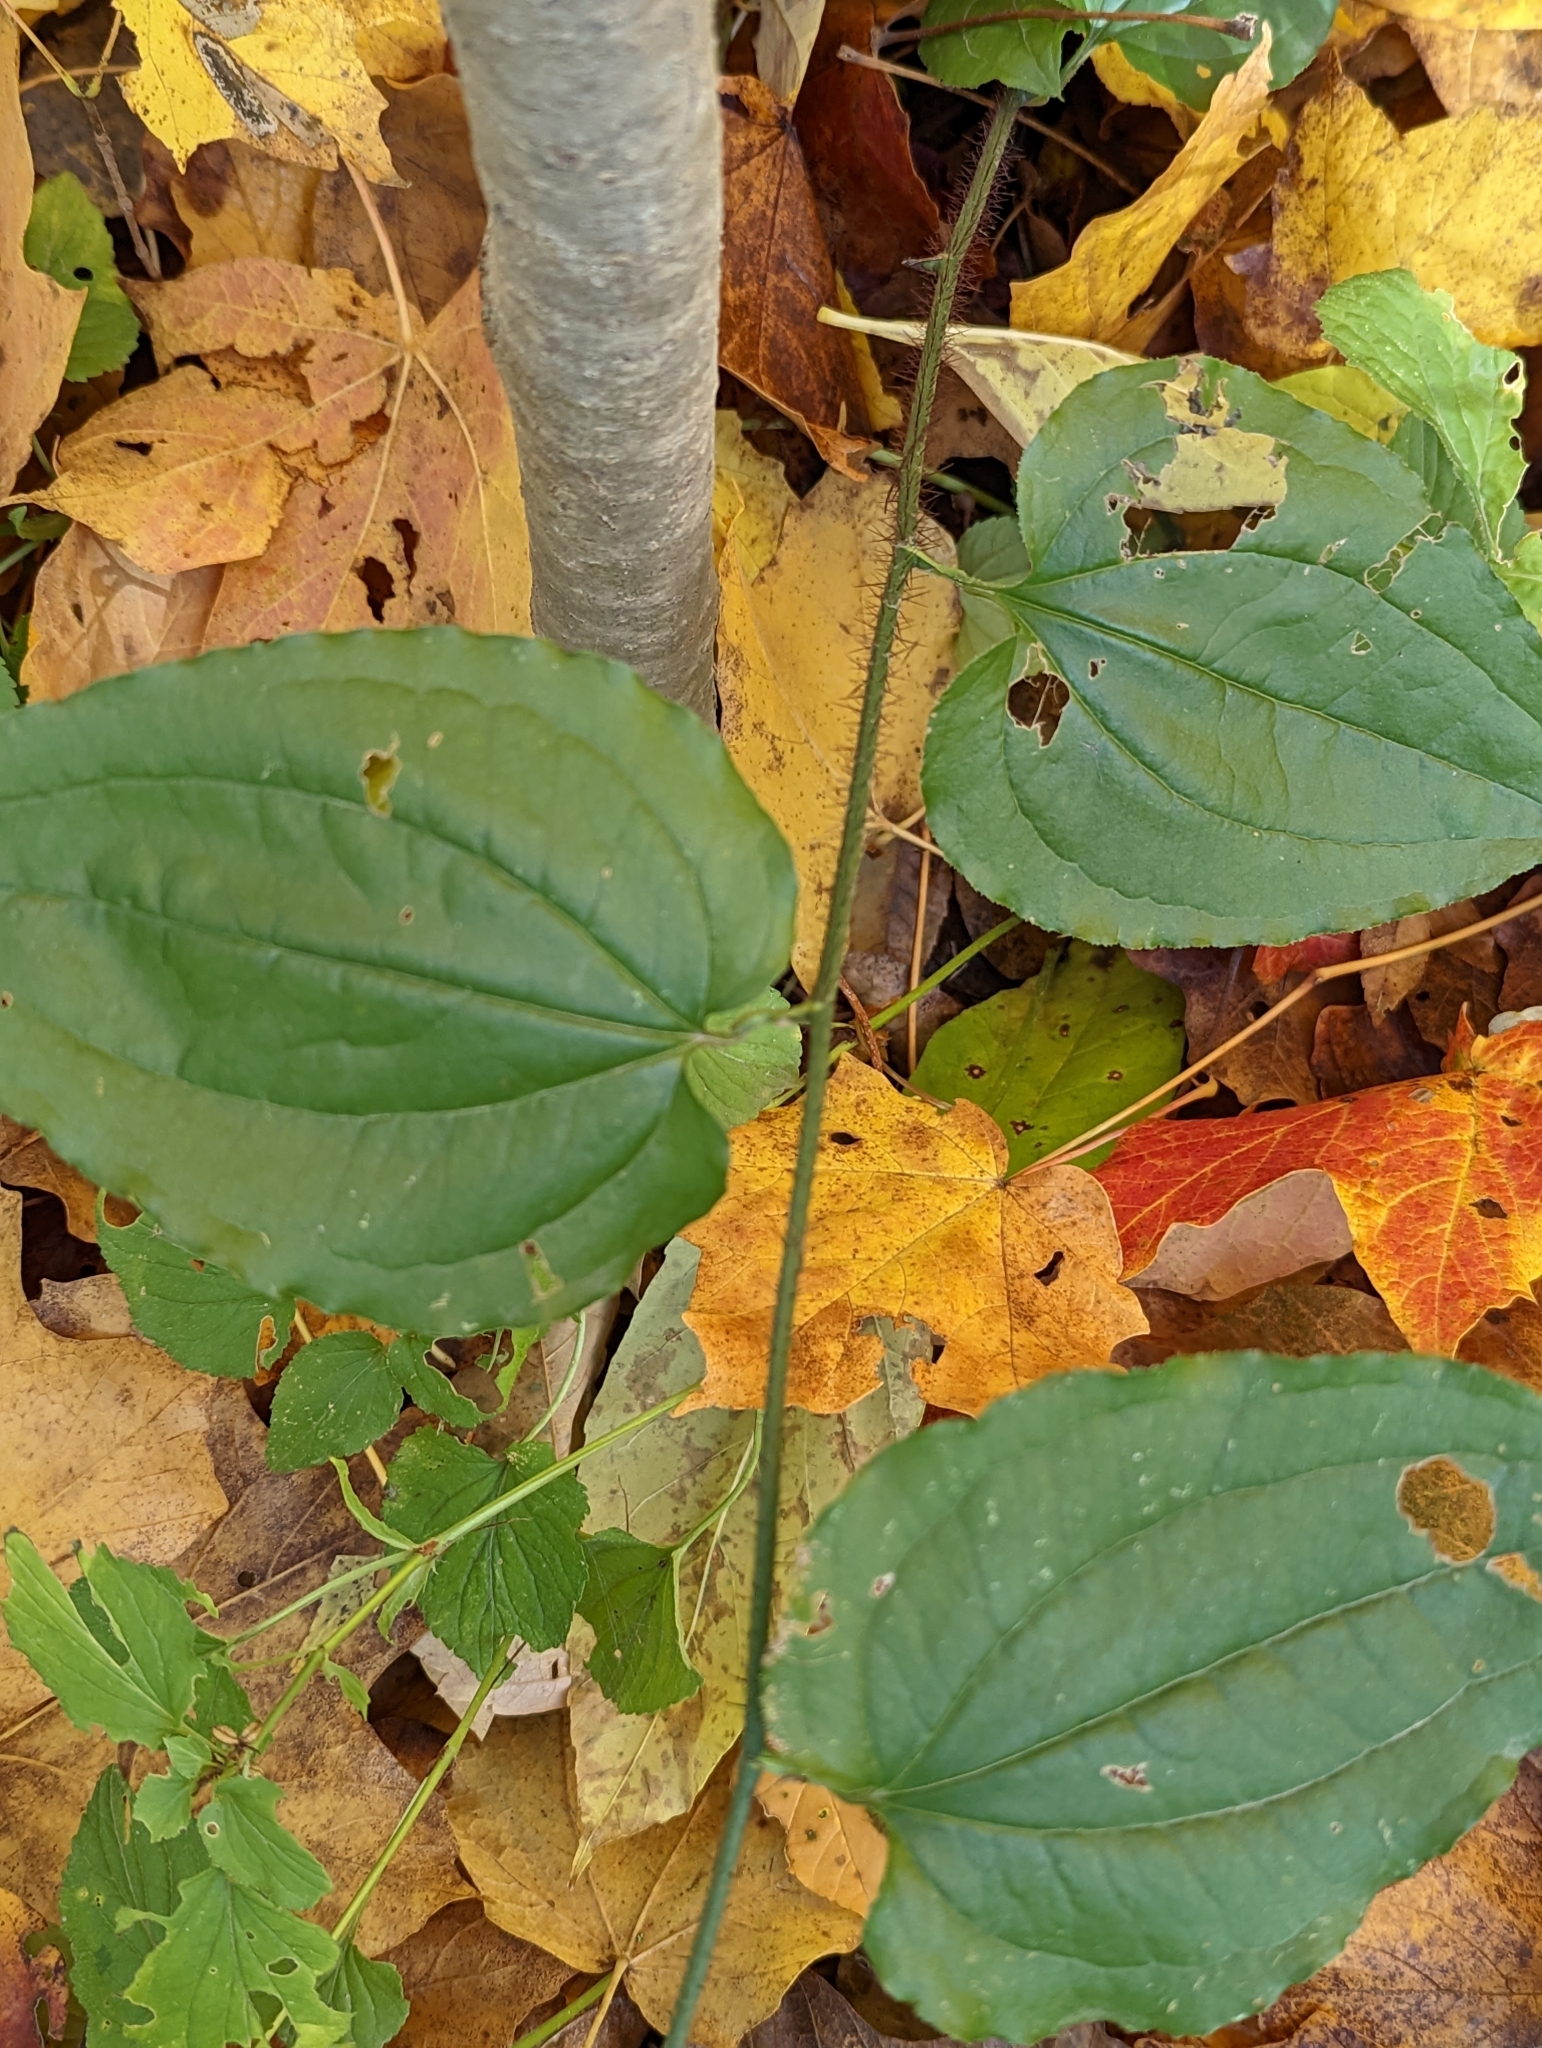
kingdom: Plantae
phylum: Tracheophyta
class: Liliopsida
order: Liliales
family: Smilacaceae
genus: Smilax
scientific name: Smilax tamnoides
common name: Hellfetter
